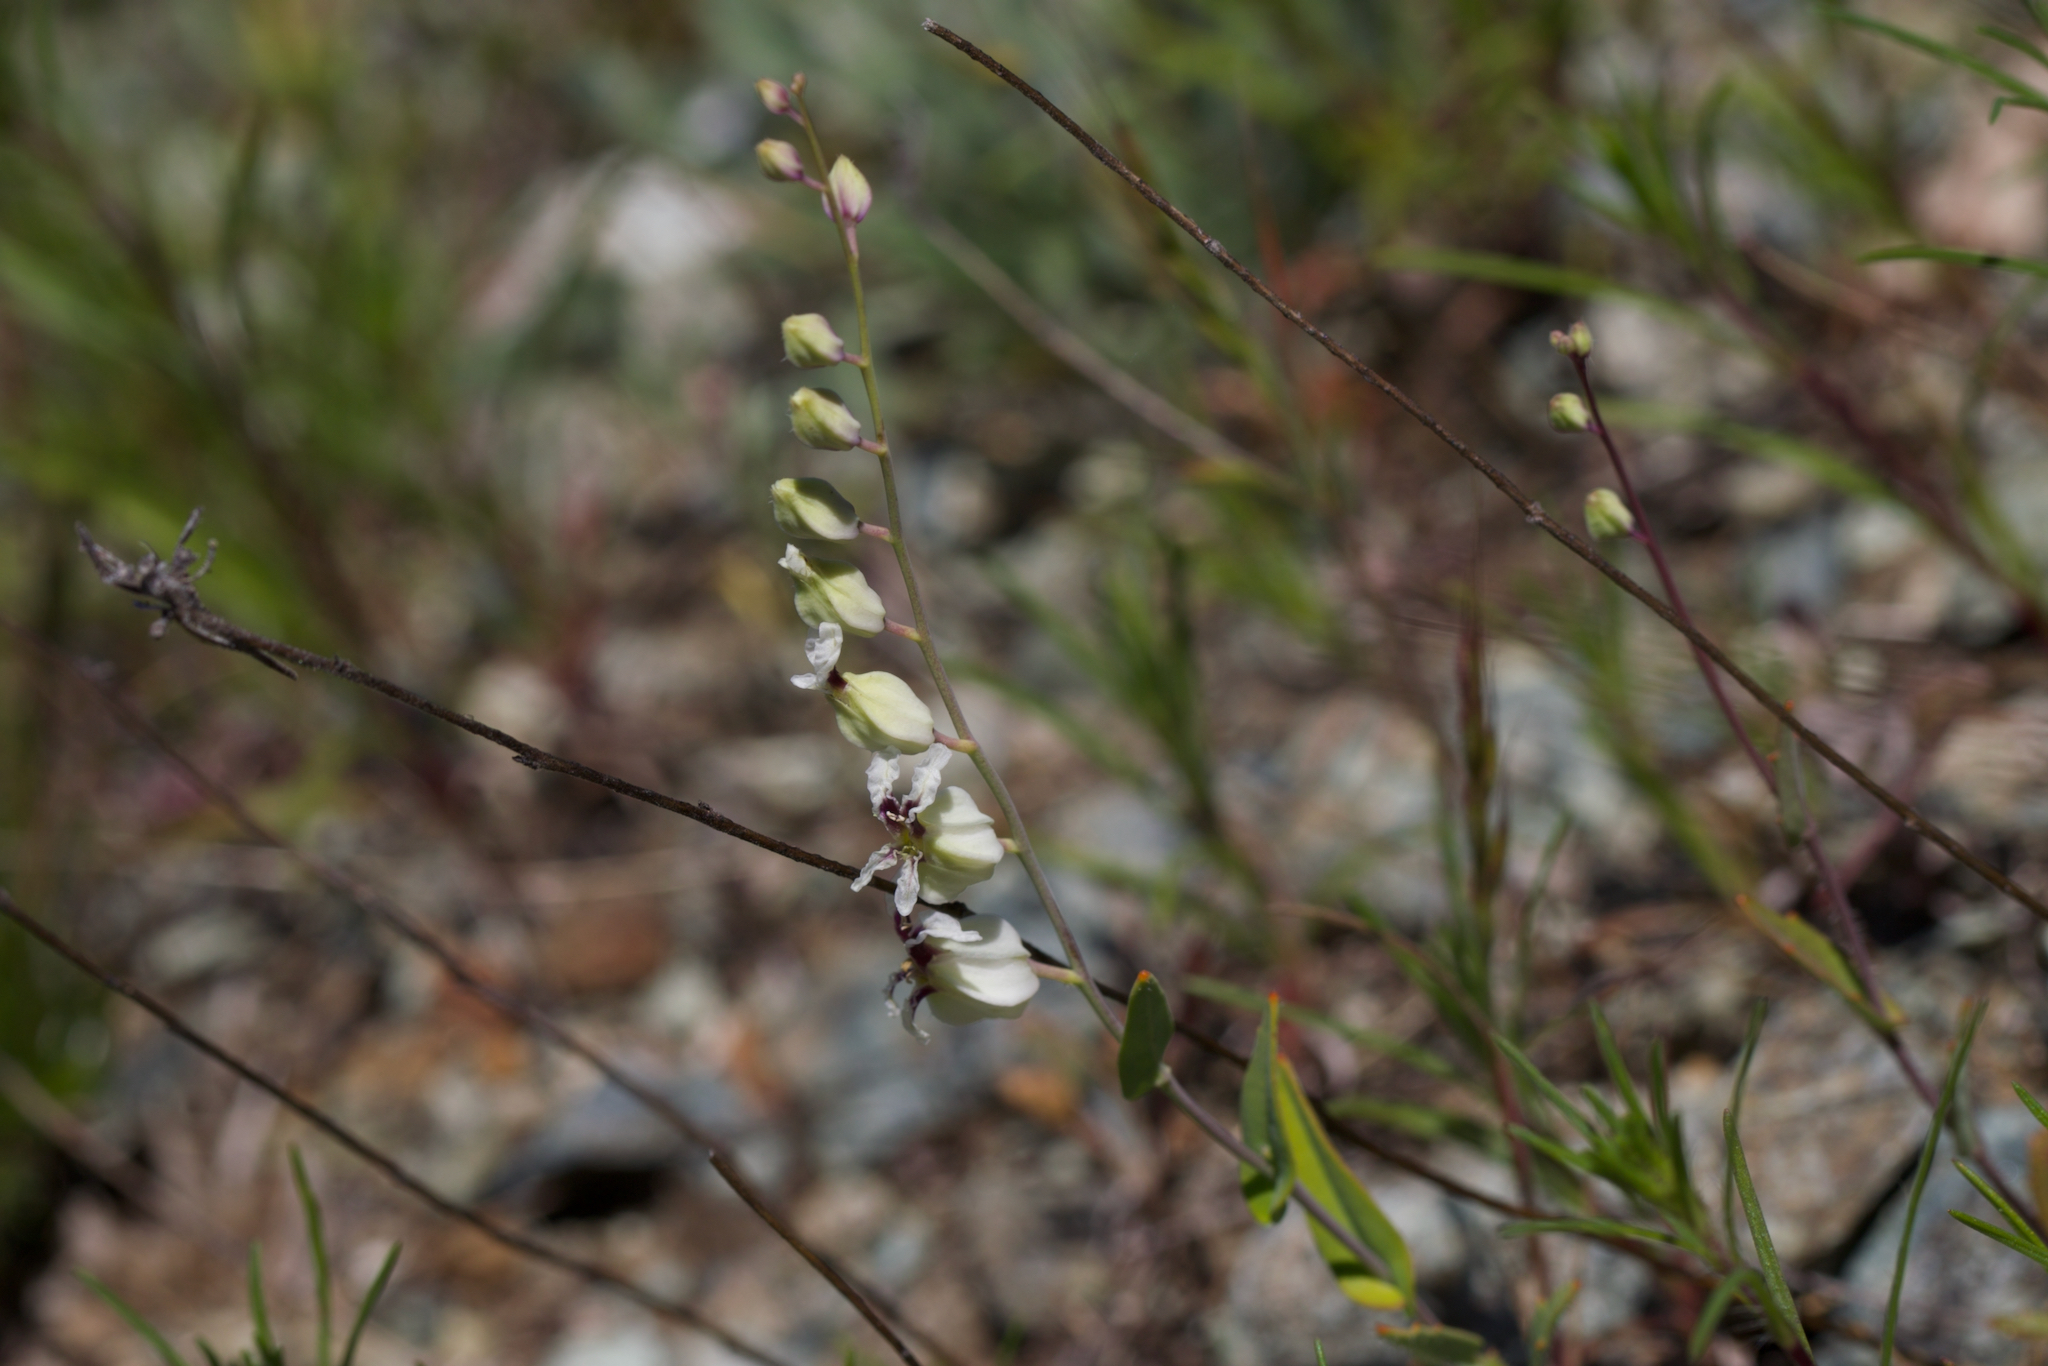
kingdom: Plantae
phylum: Tracheophyta
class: Magnoliopsida
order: Brassicales
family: Brassicaceae
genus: Streptanthus
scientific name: Streptanthus glandulosus
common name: Jewel-flower
